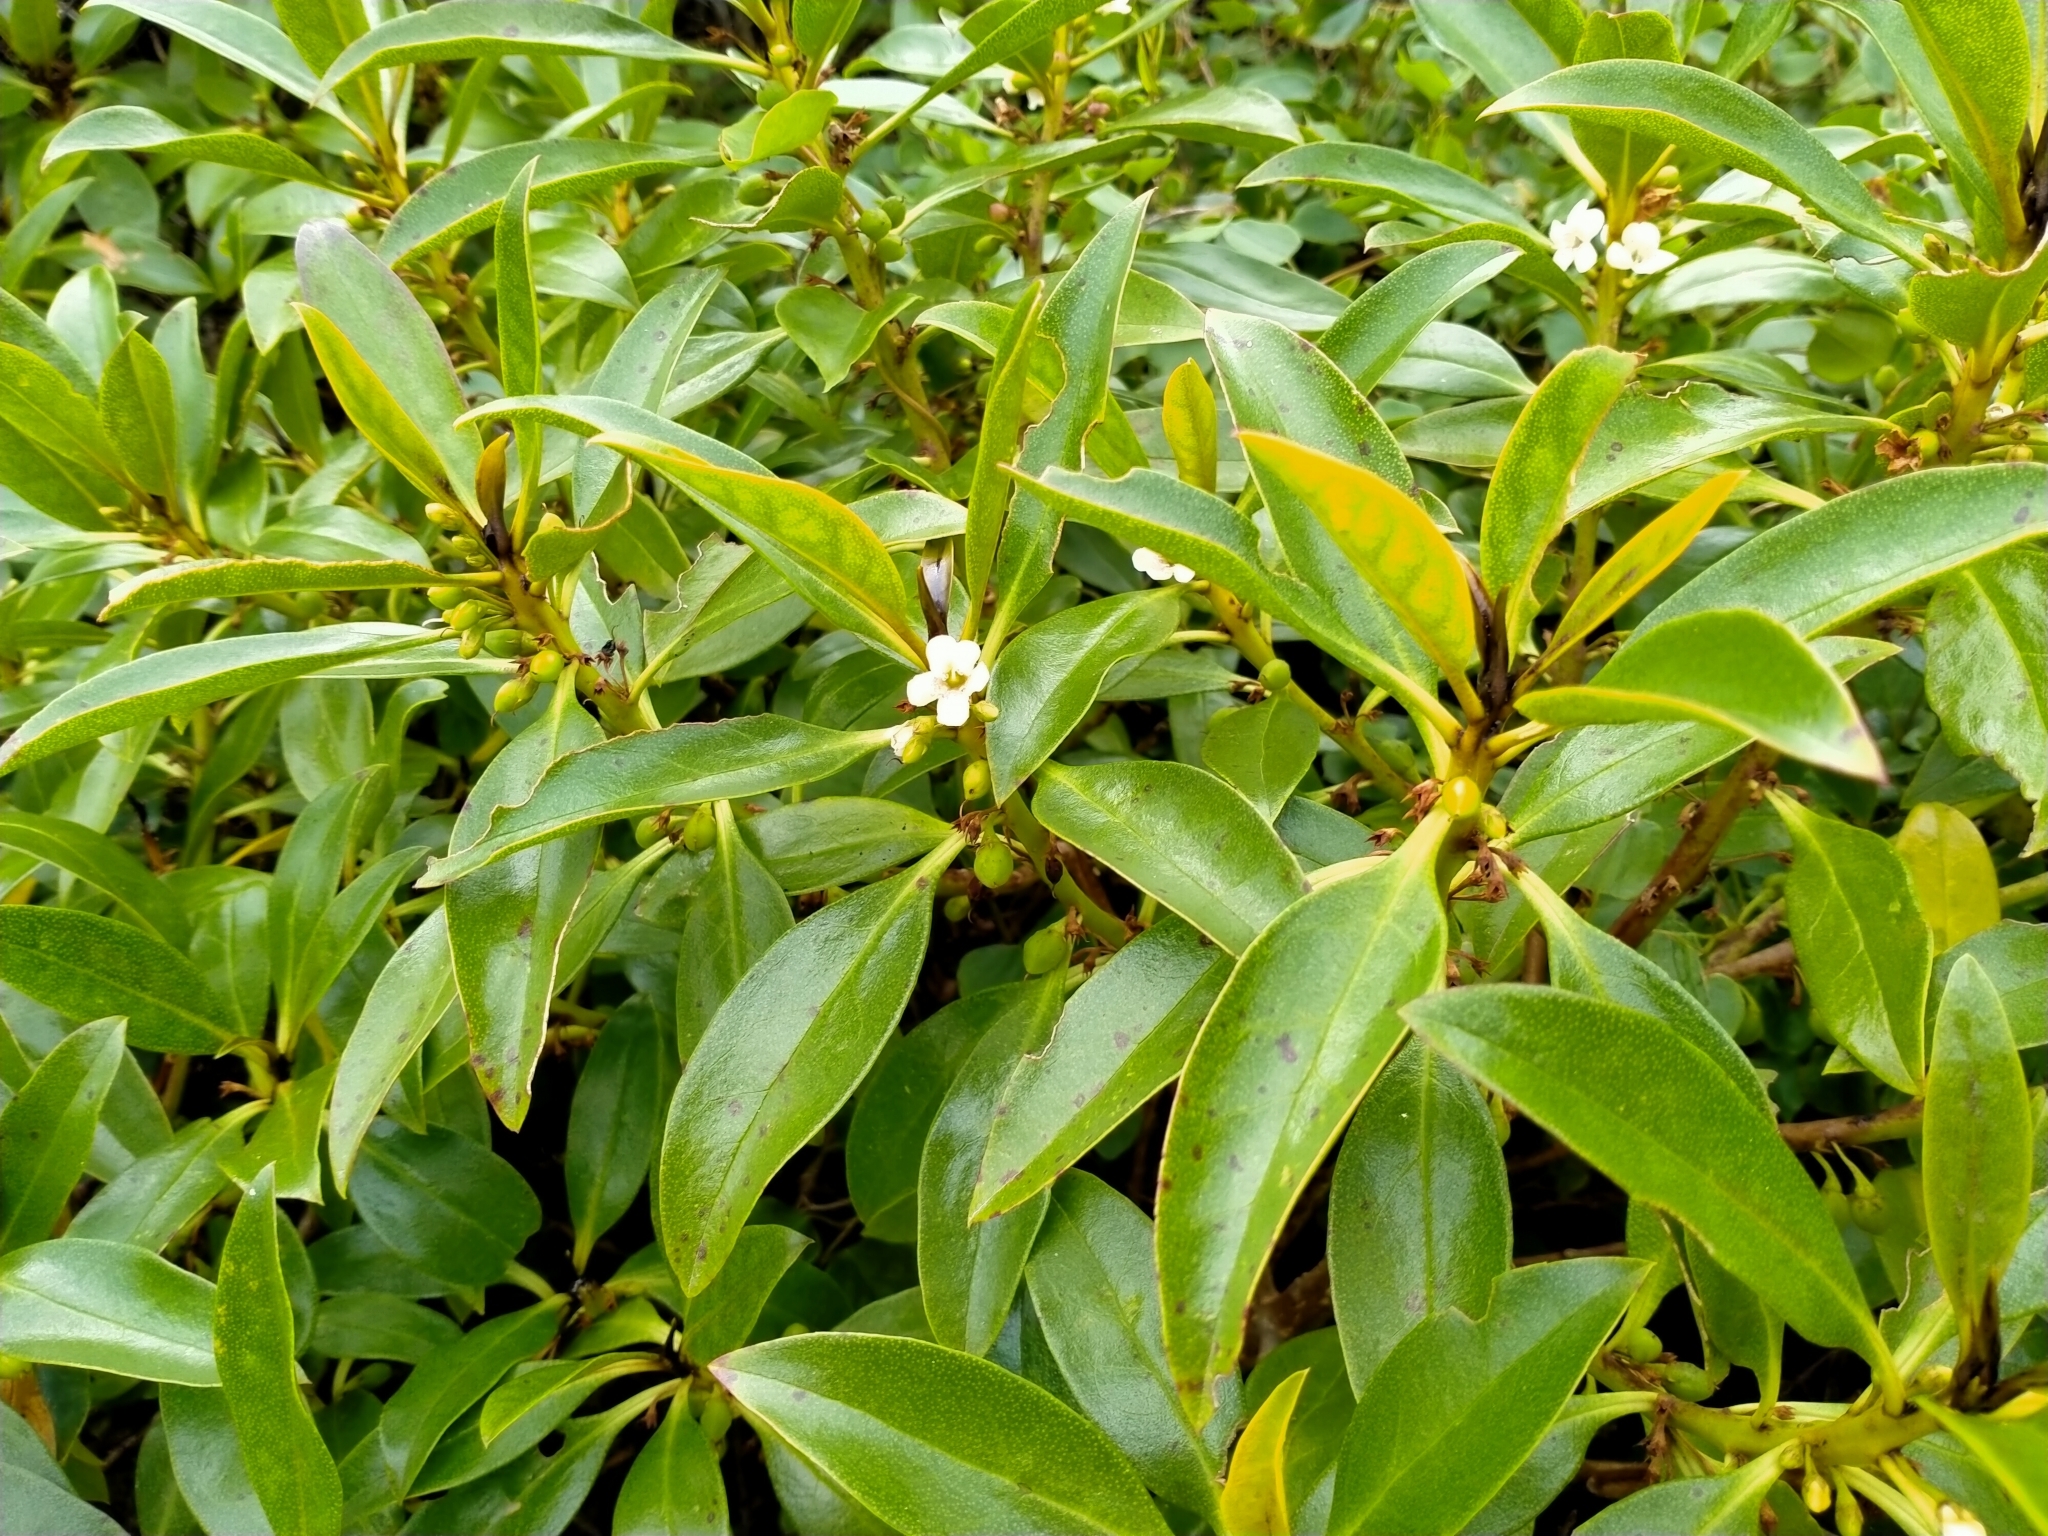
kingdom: Plantae
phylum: Tracheophyta
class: Magnoliopsida
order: Lamiales
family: Scrophulariaceae
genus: Myoporum
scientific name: Myoporum laetum
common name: Ngaio tree
